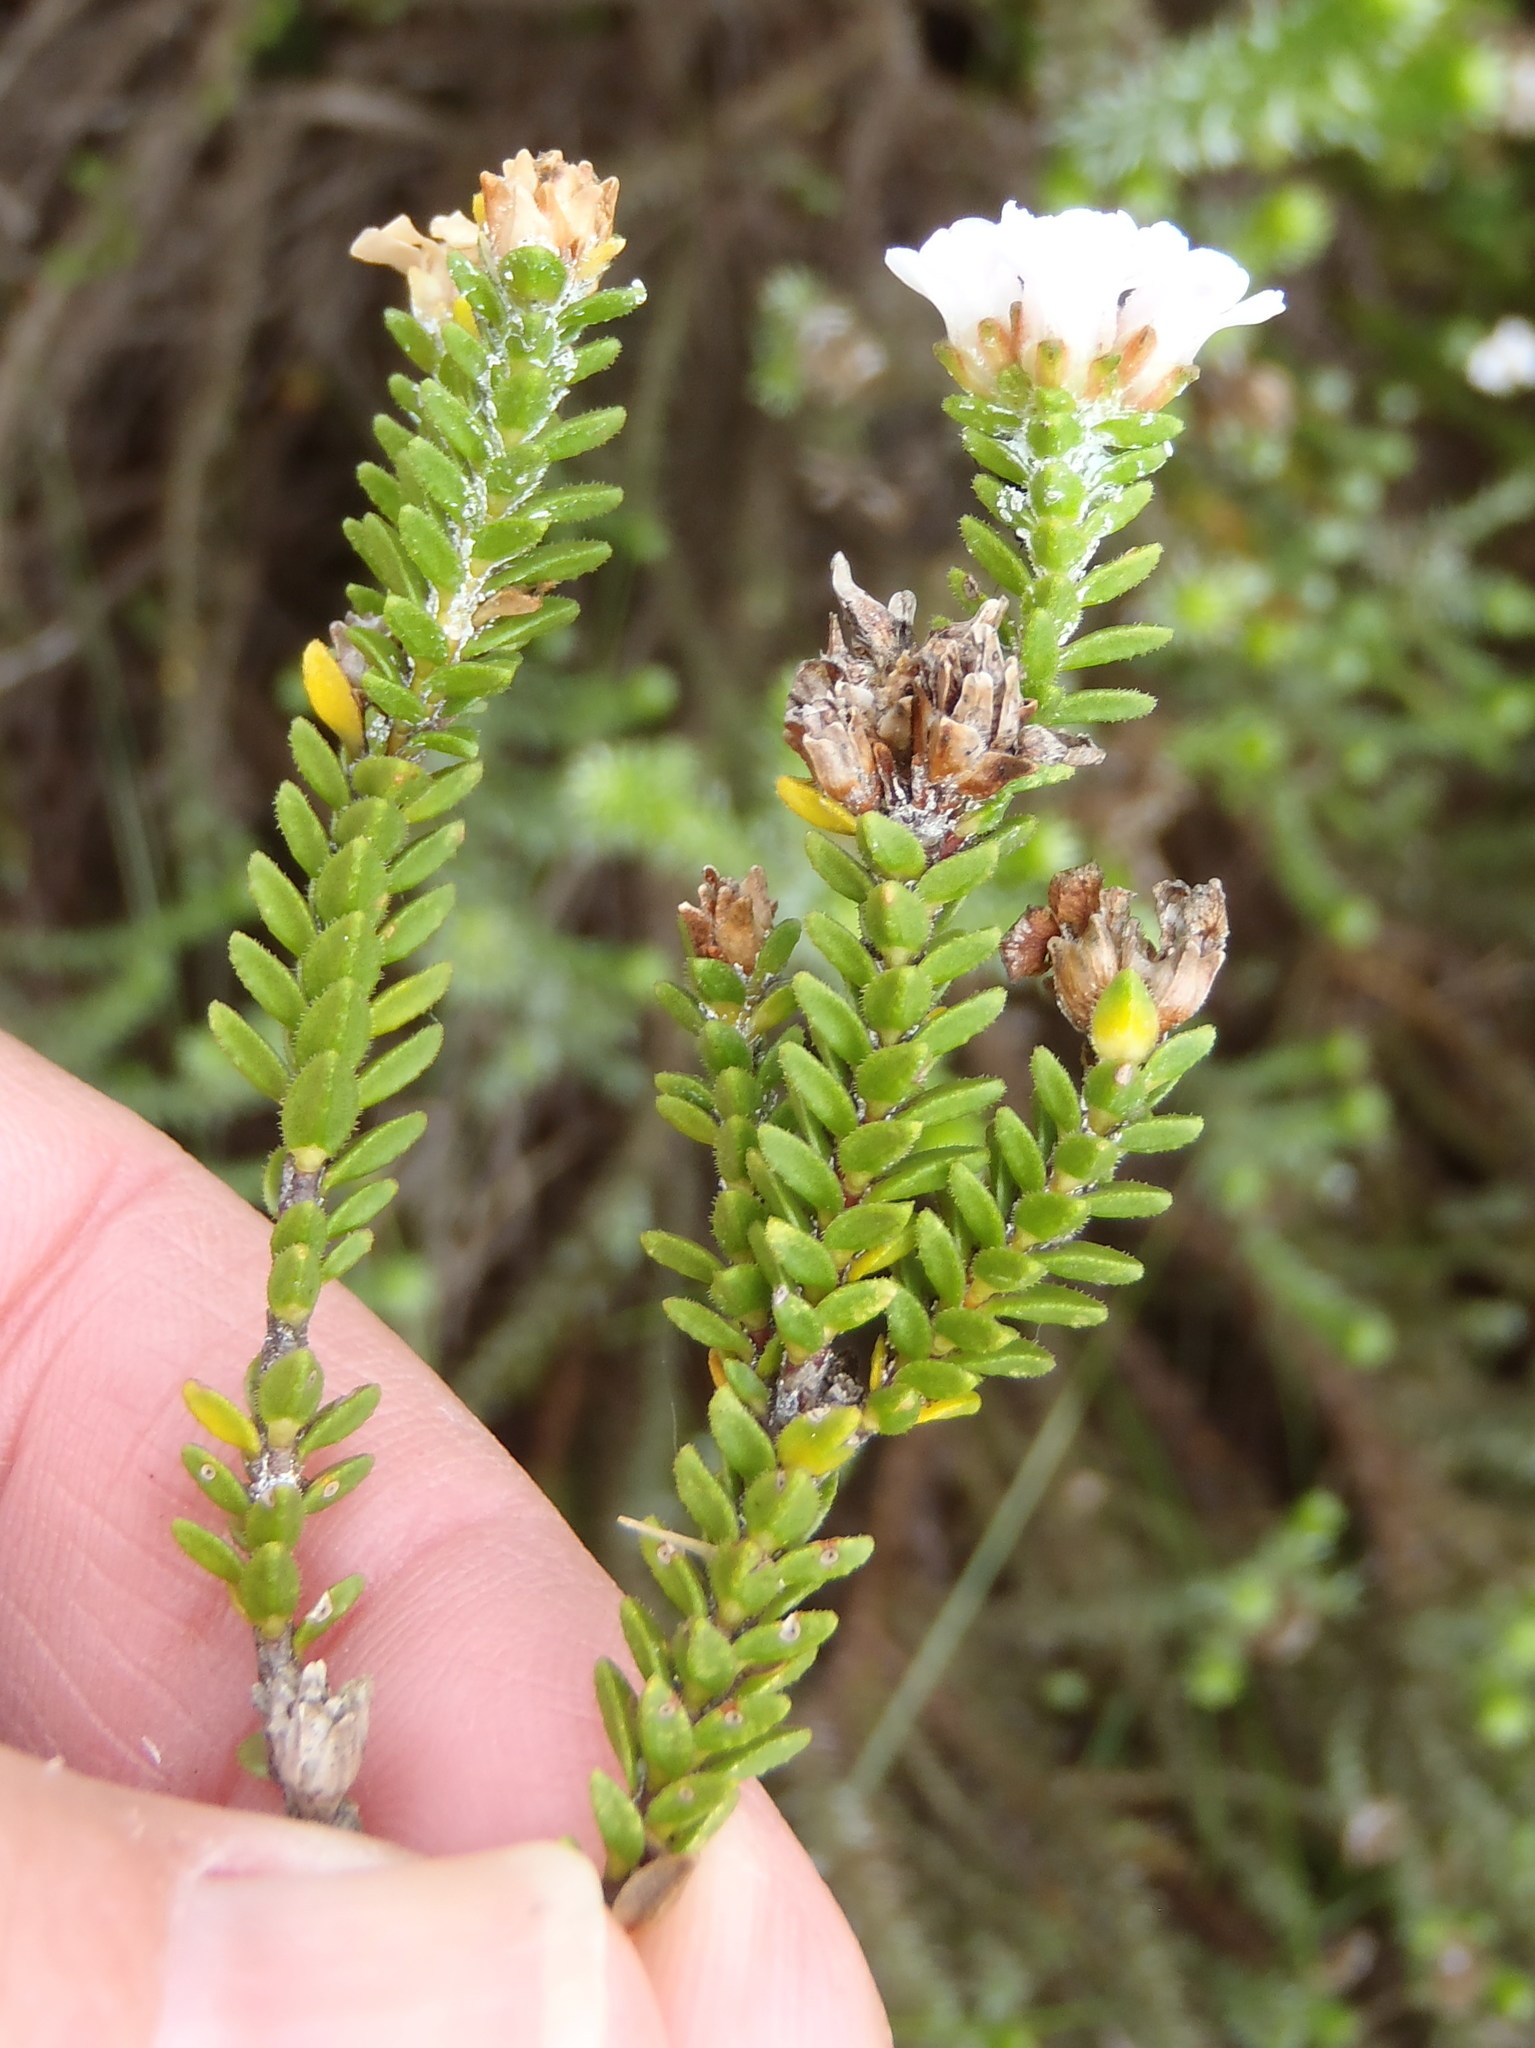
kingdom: Plantae
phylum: Tracheophyta
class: Magnoliopsida
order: Sapindales
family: Rutaceae
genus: Euchaetis
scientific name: Euchaetis meridionalis
